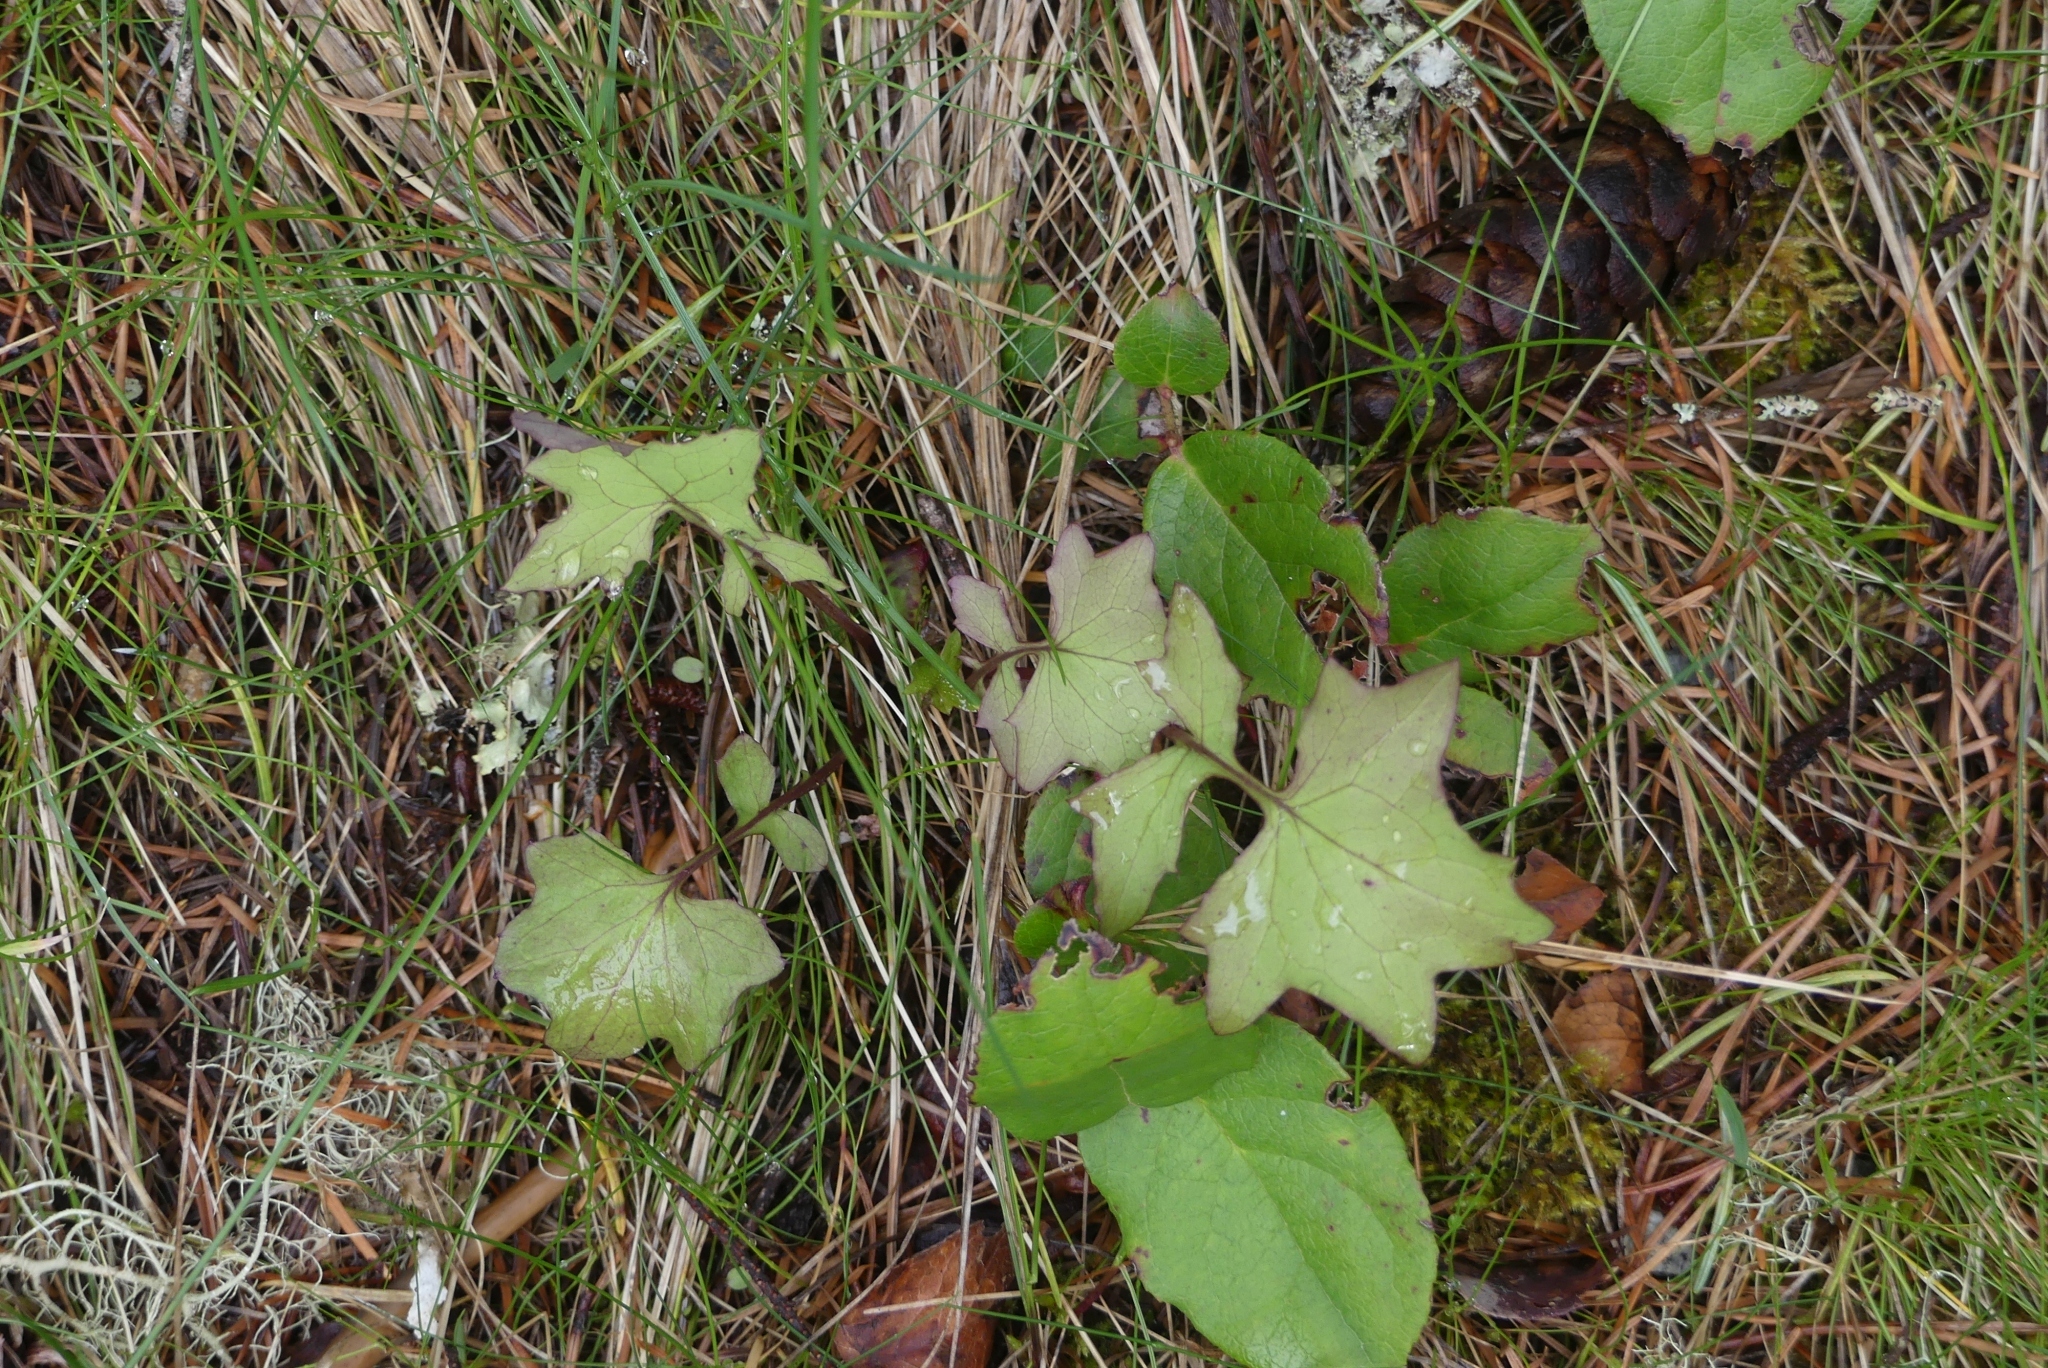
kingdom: Plantae
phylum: Tracheophyta
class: Magnoliopsida
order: Asterales
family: Asteraceae
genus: Mycelis
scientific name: Mycelis muralis
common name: Wall lettuce
